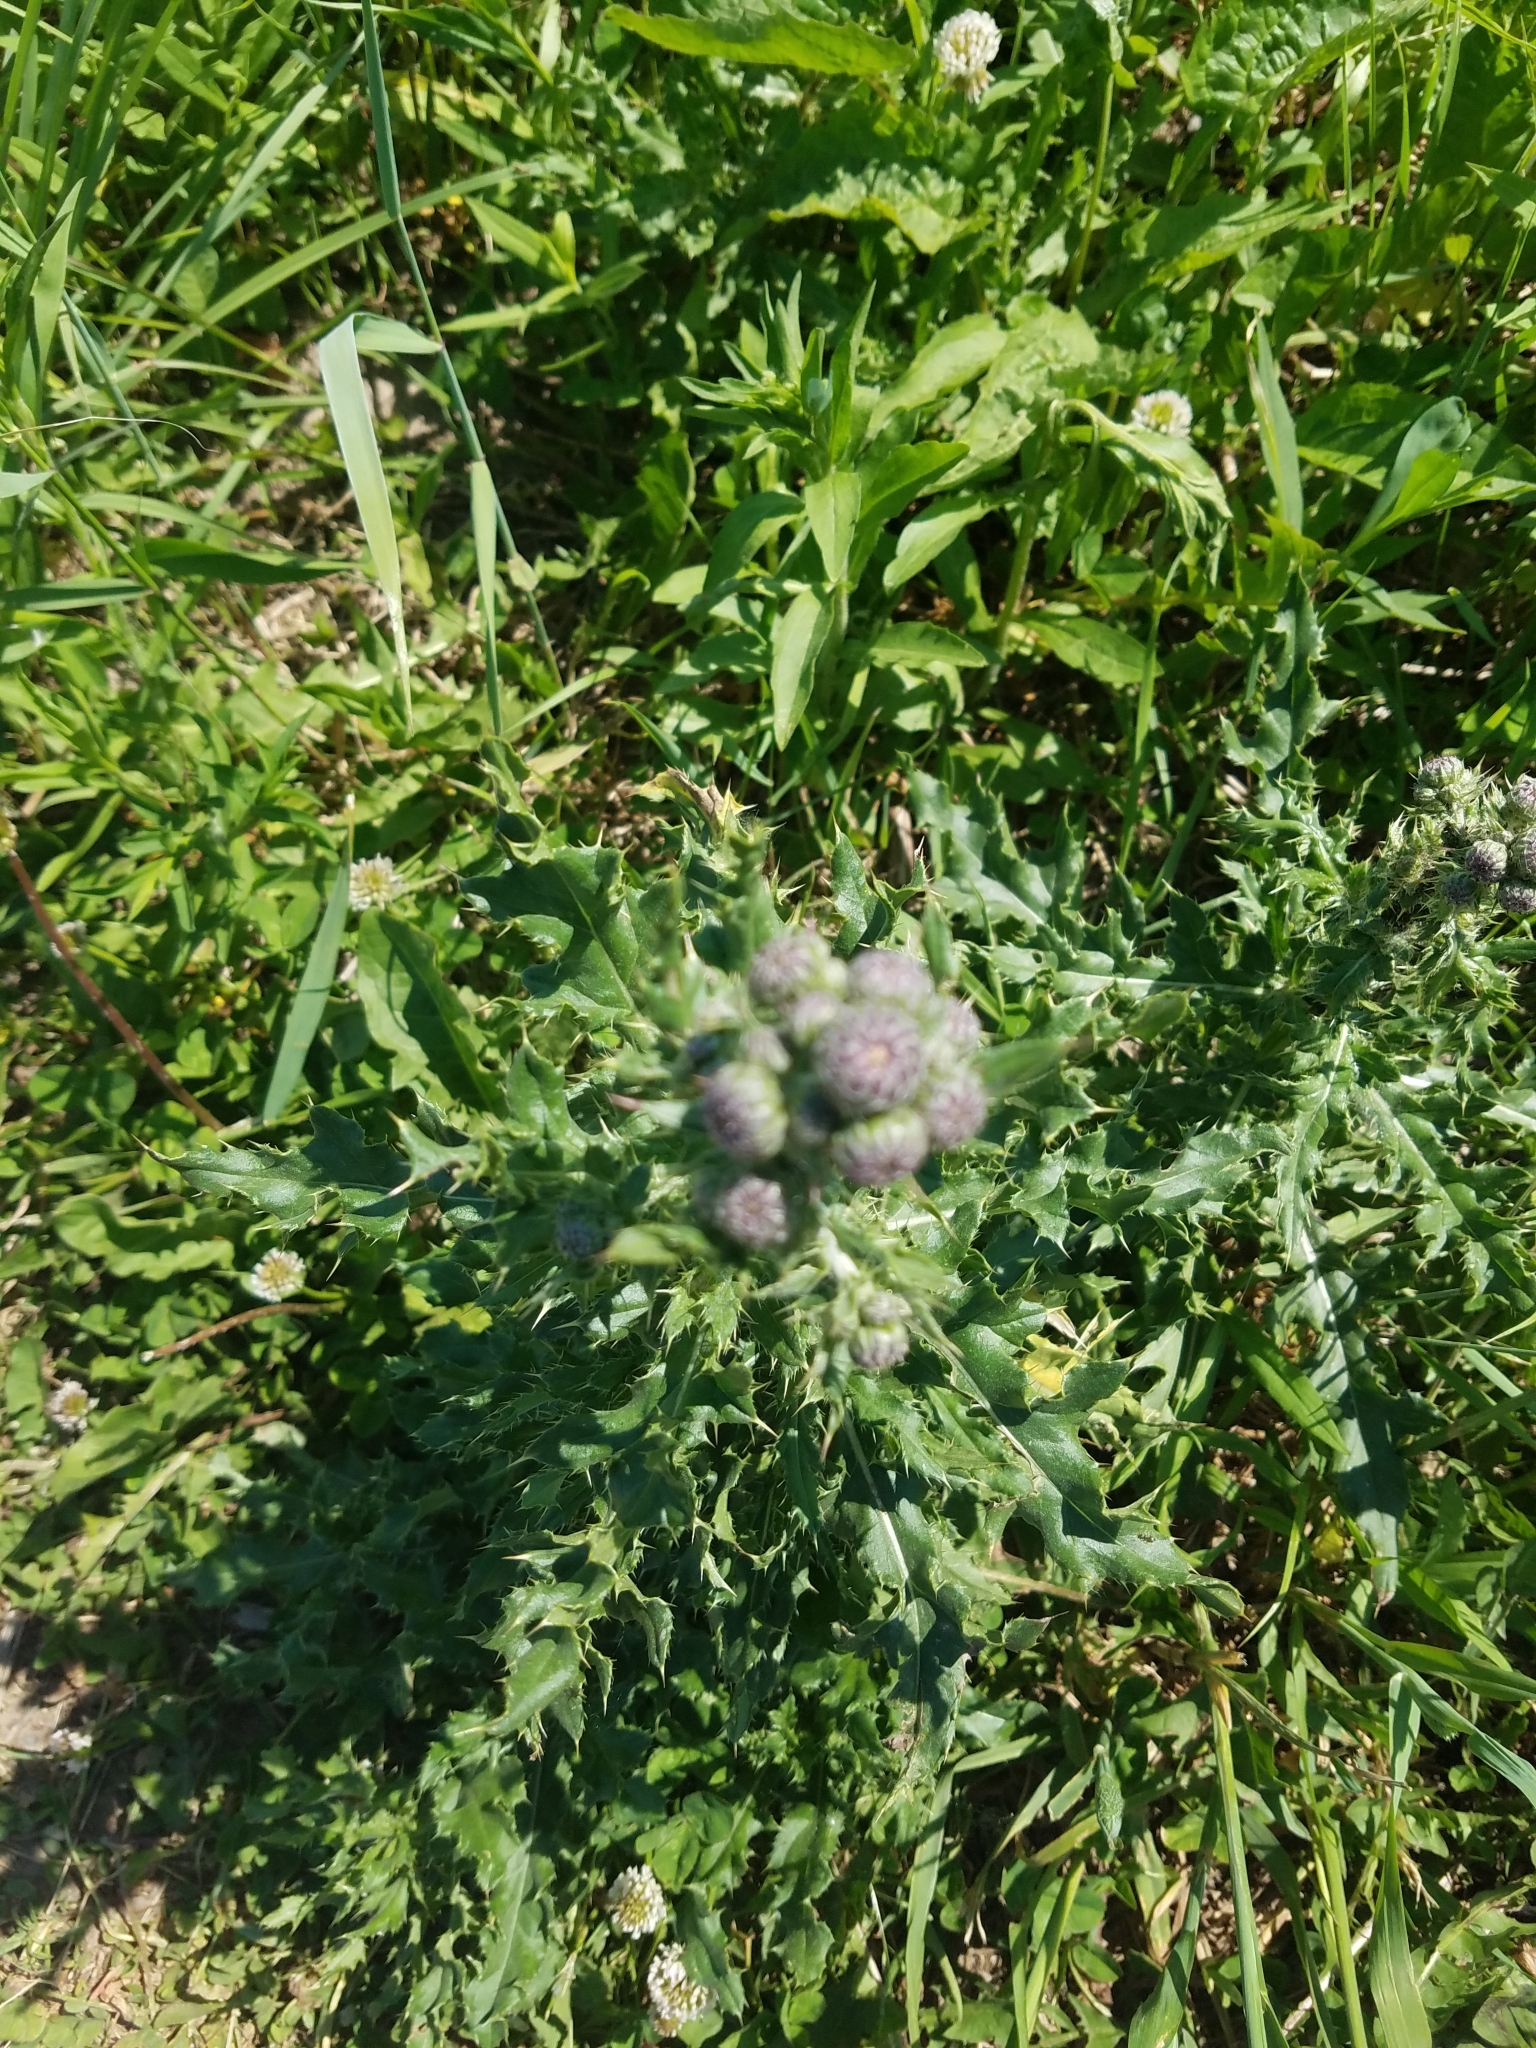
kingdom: Plantae
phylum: Tracheophyta
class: Magnoliopsida
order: Asterales
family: Asteraceae
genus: Cirsium
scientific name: Cirsium arvense
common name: Creeping thistle
